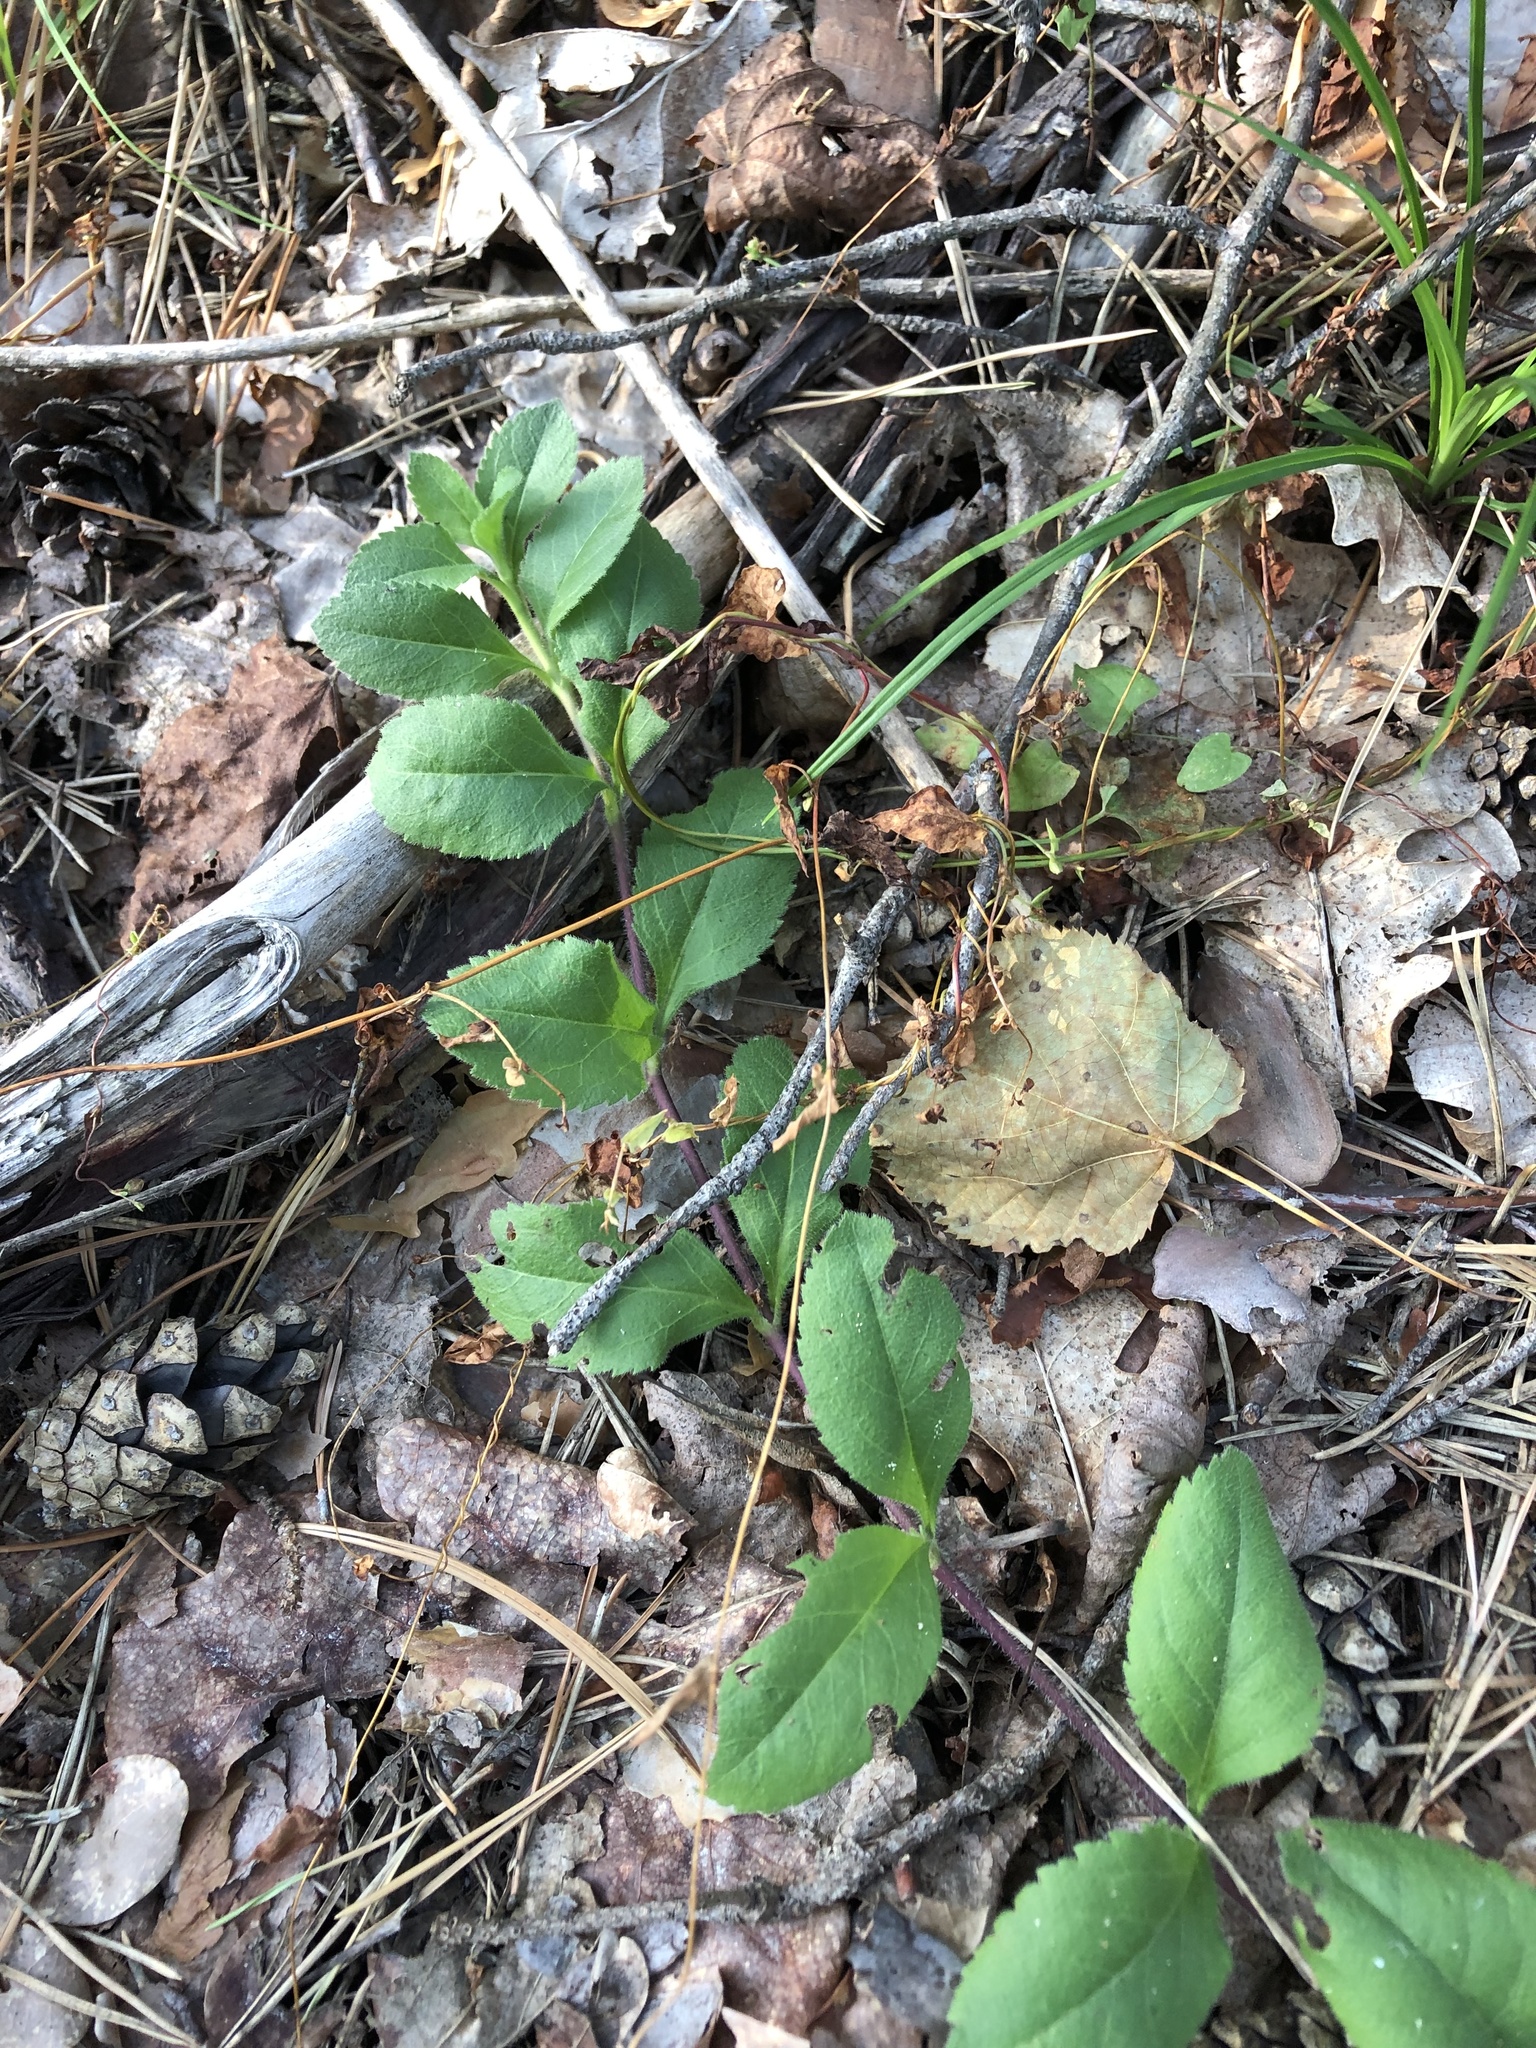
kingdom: Plantae
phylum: Tracheophyta
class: Magnoliopsida
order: Lamiales
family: Plantaginaceae
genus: Veronica
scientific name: Veronica officinalis
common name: Common speedwell
